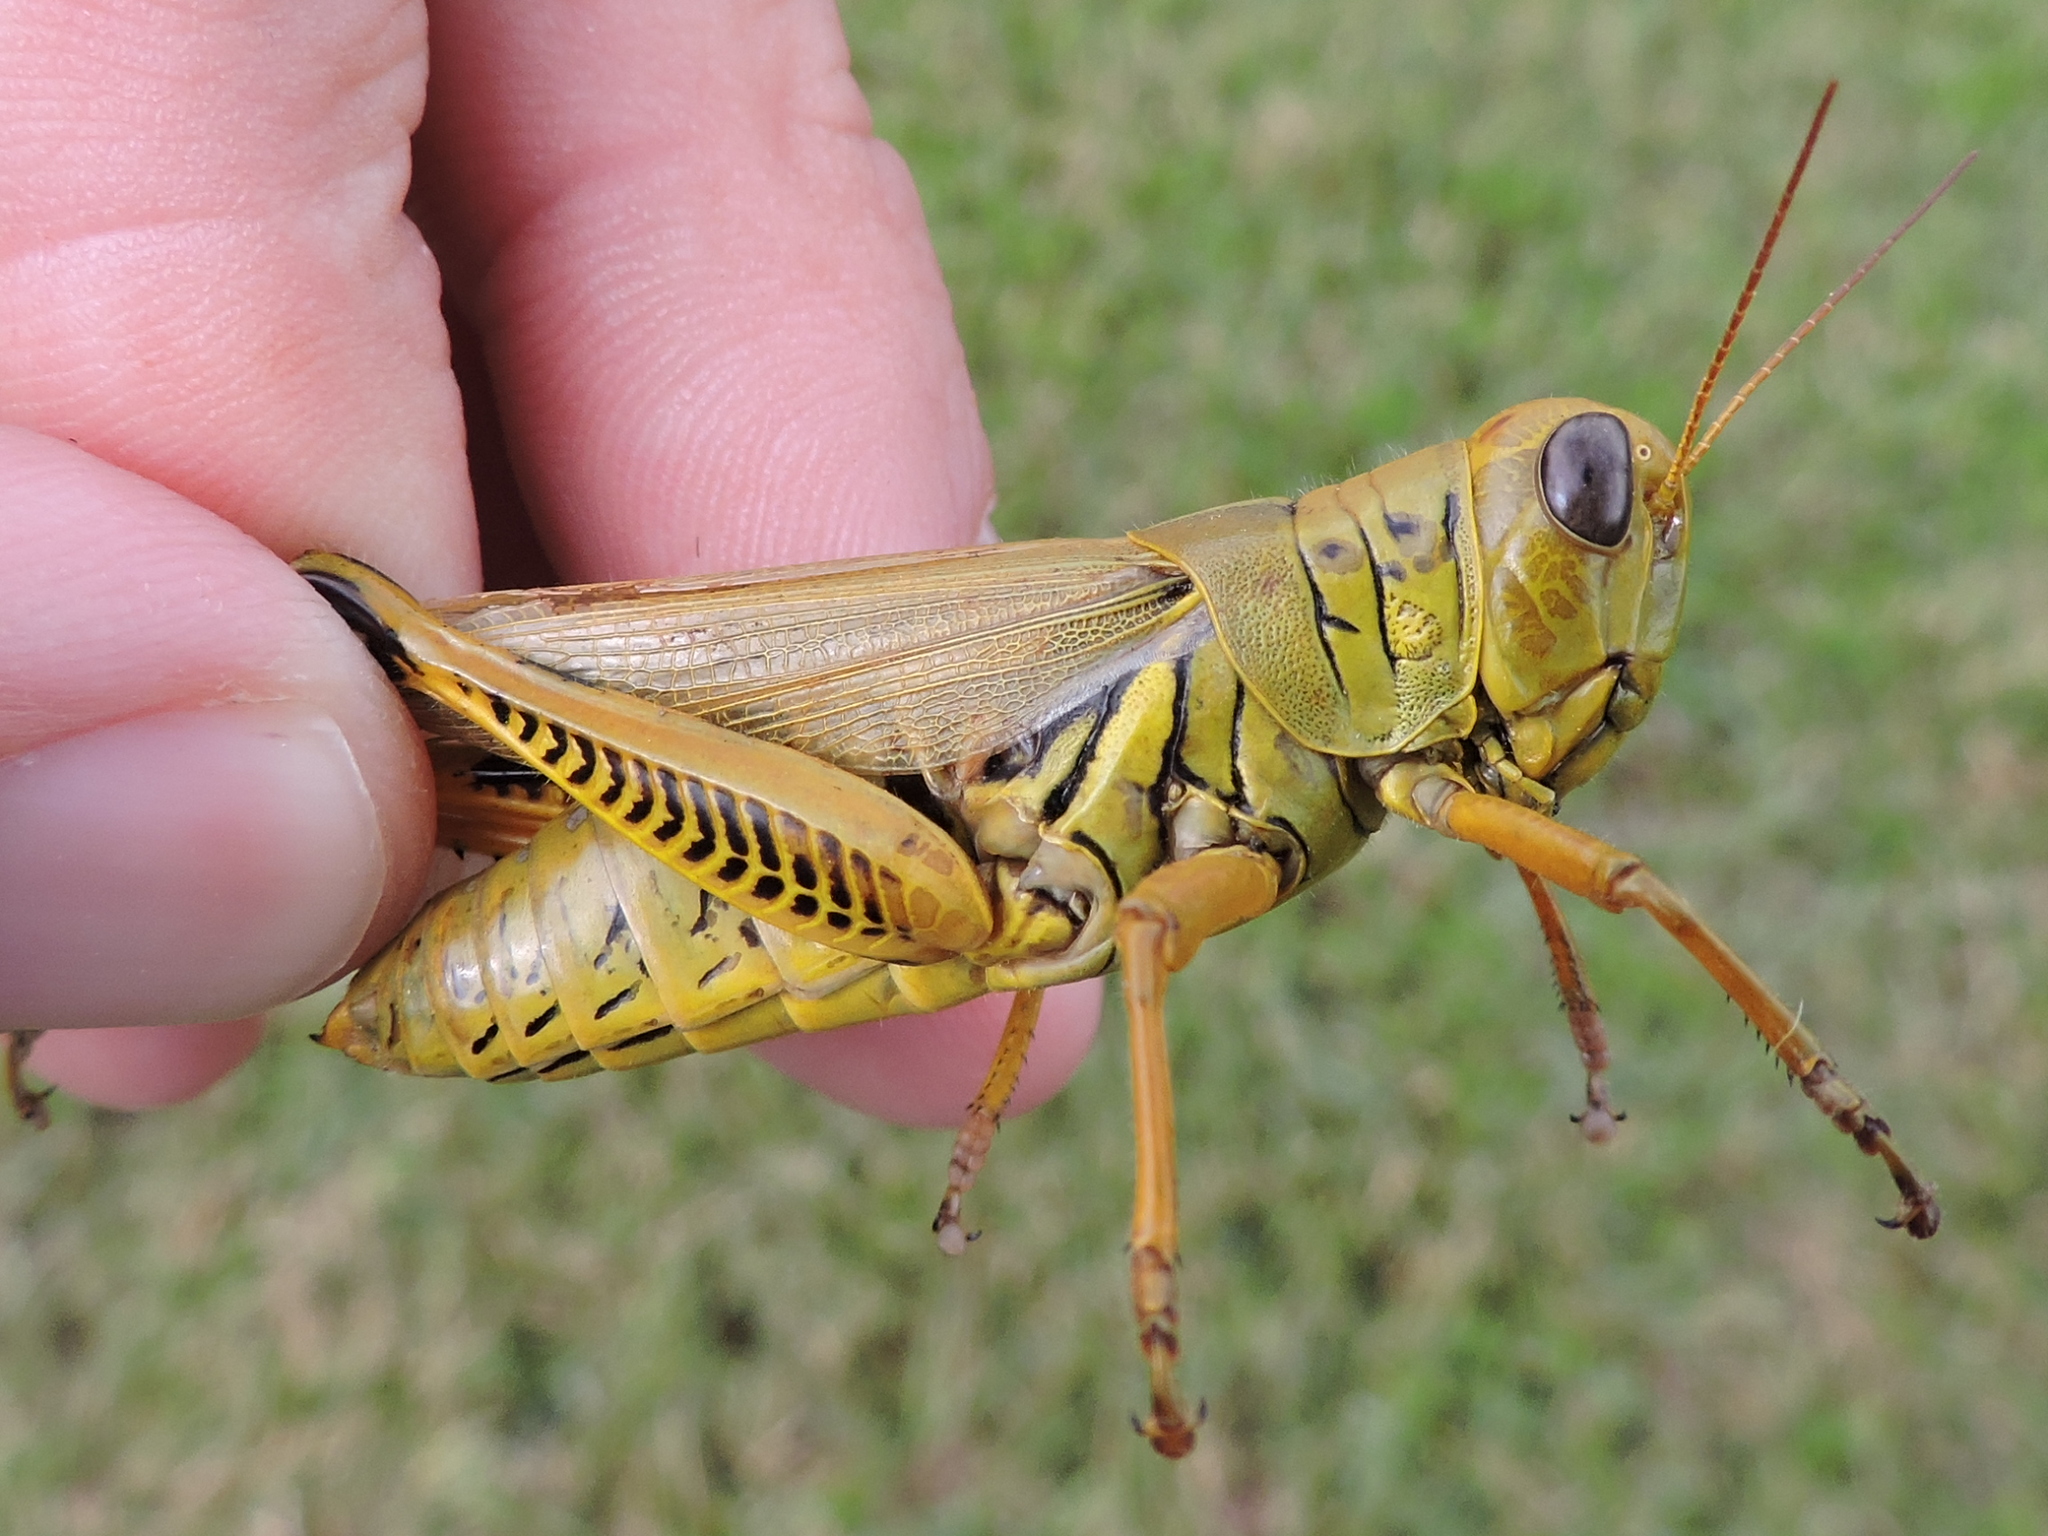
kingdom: Animalia
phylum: Arthropoda
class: Insecta
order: Orthoptera
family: Acrididae
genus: Melanoplus
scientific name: Melanoplus differentialis
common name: Differential grasshopper
